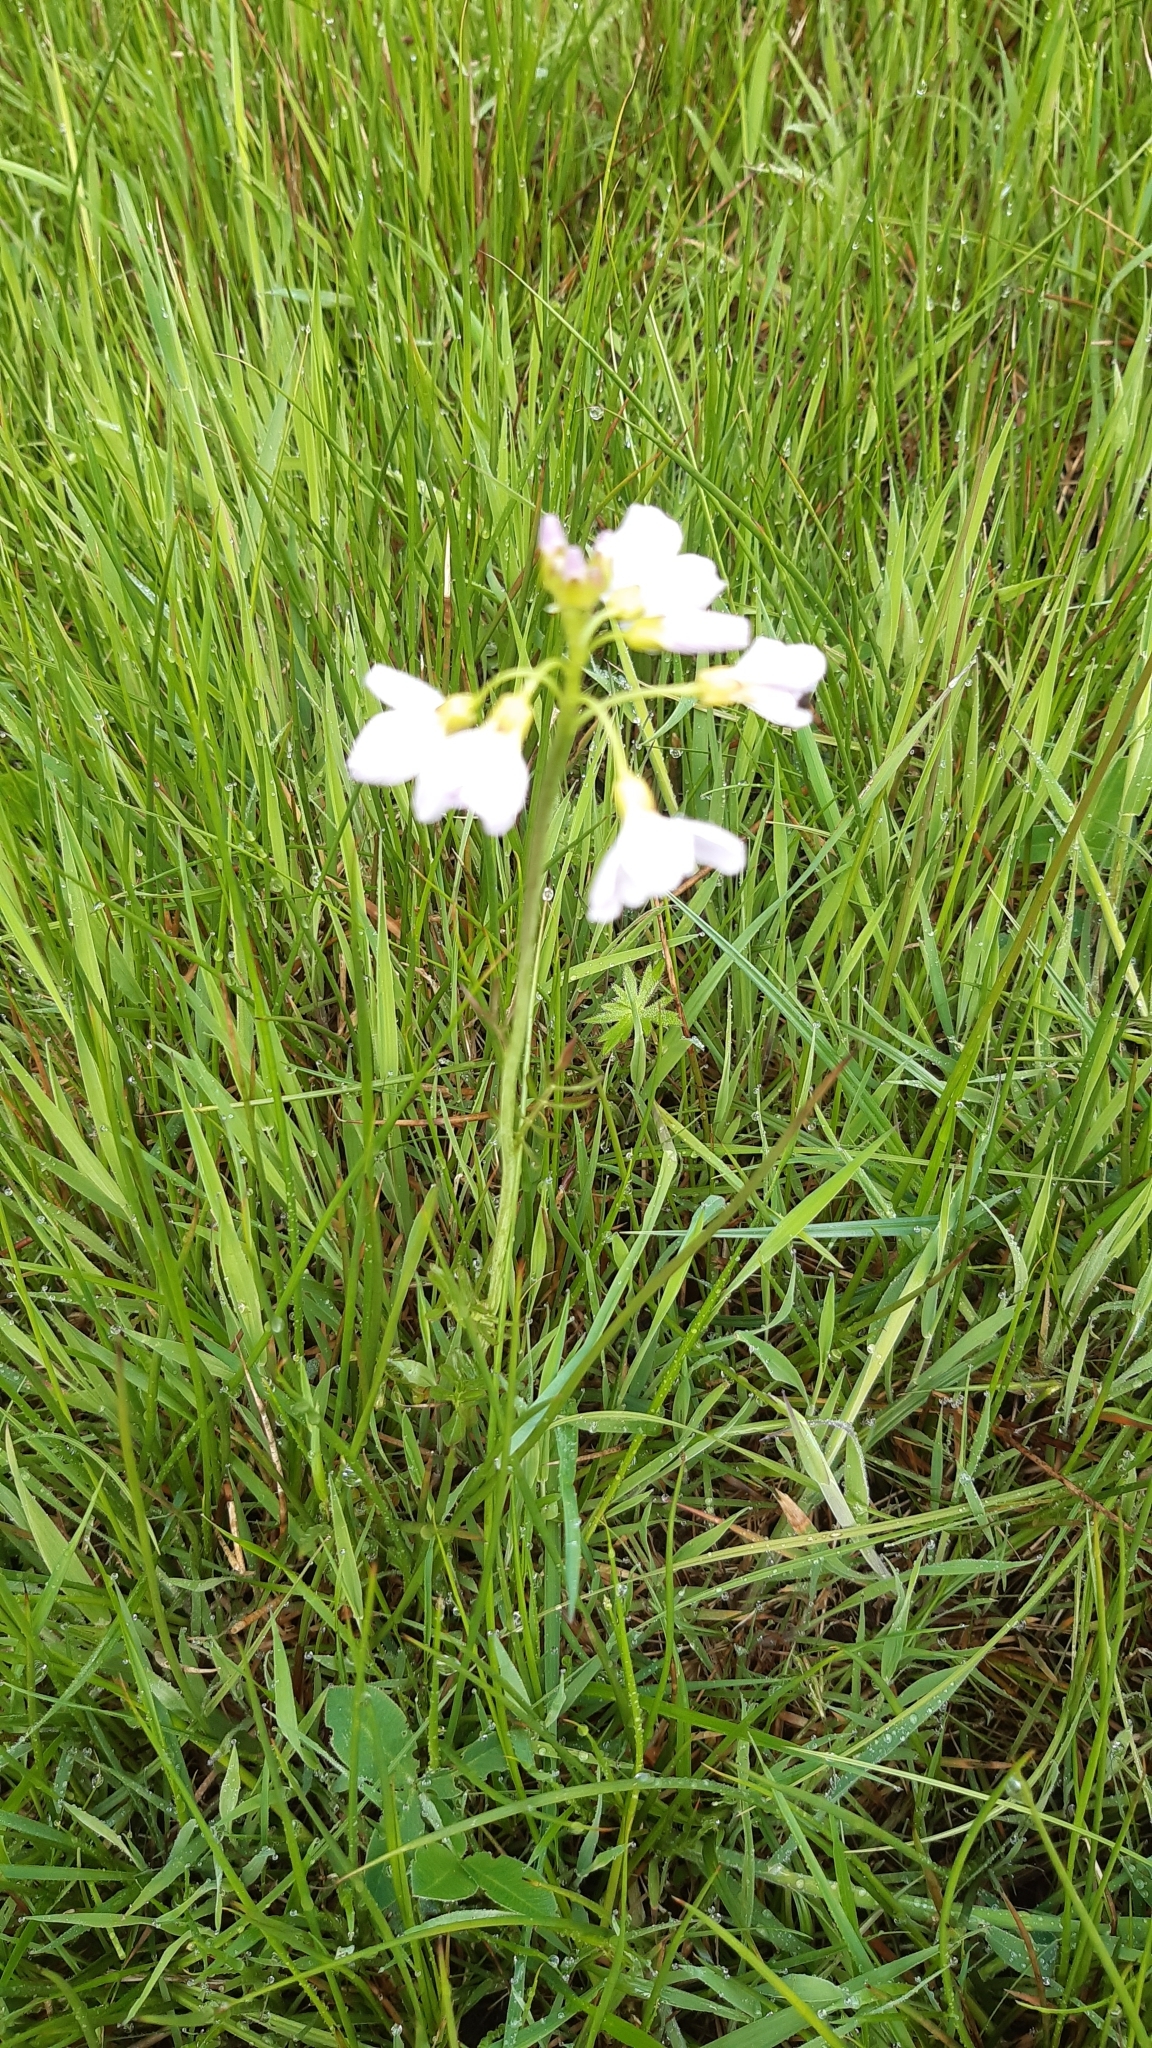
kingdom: Plantae
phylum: Tracheophyta
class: Magnoliopsida
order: Brassicales
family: Brassicaceae
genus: Cardamine
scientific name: Cardamine pratensis
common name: Cuckoo flower
